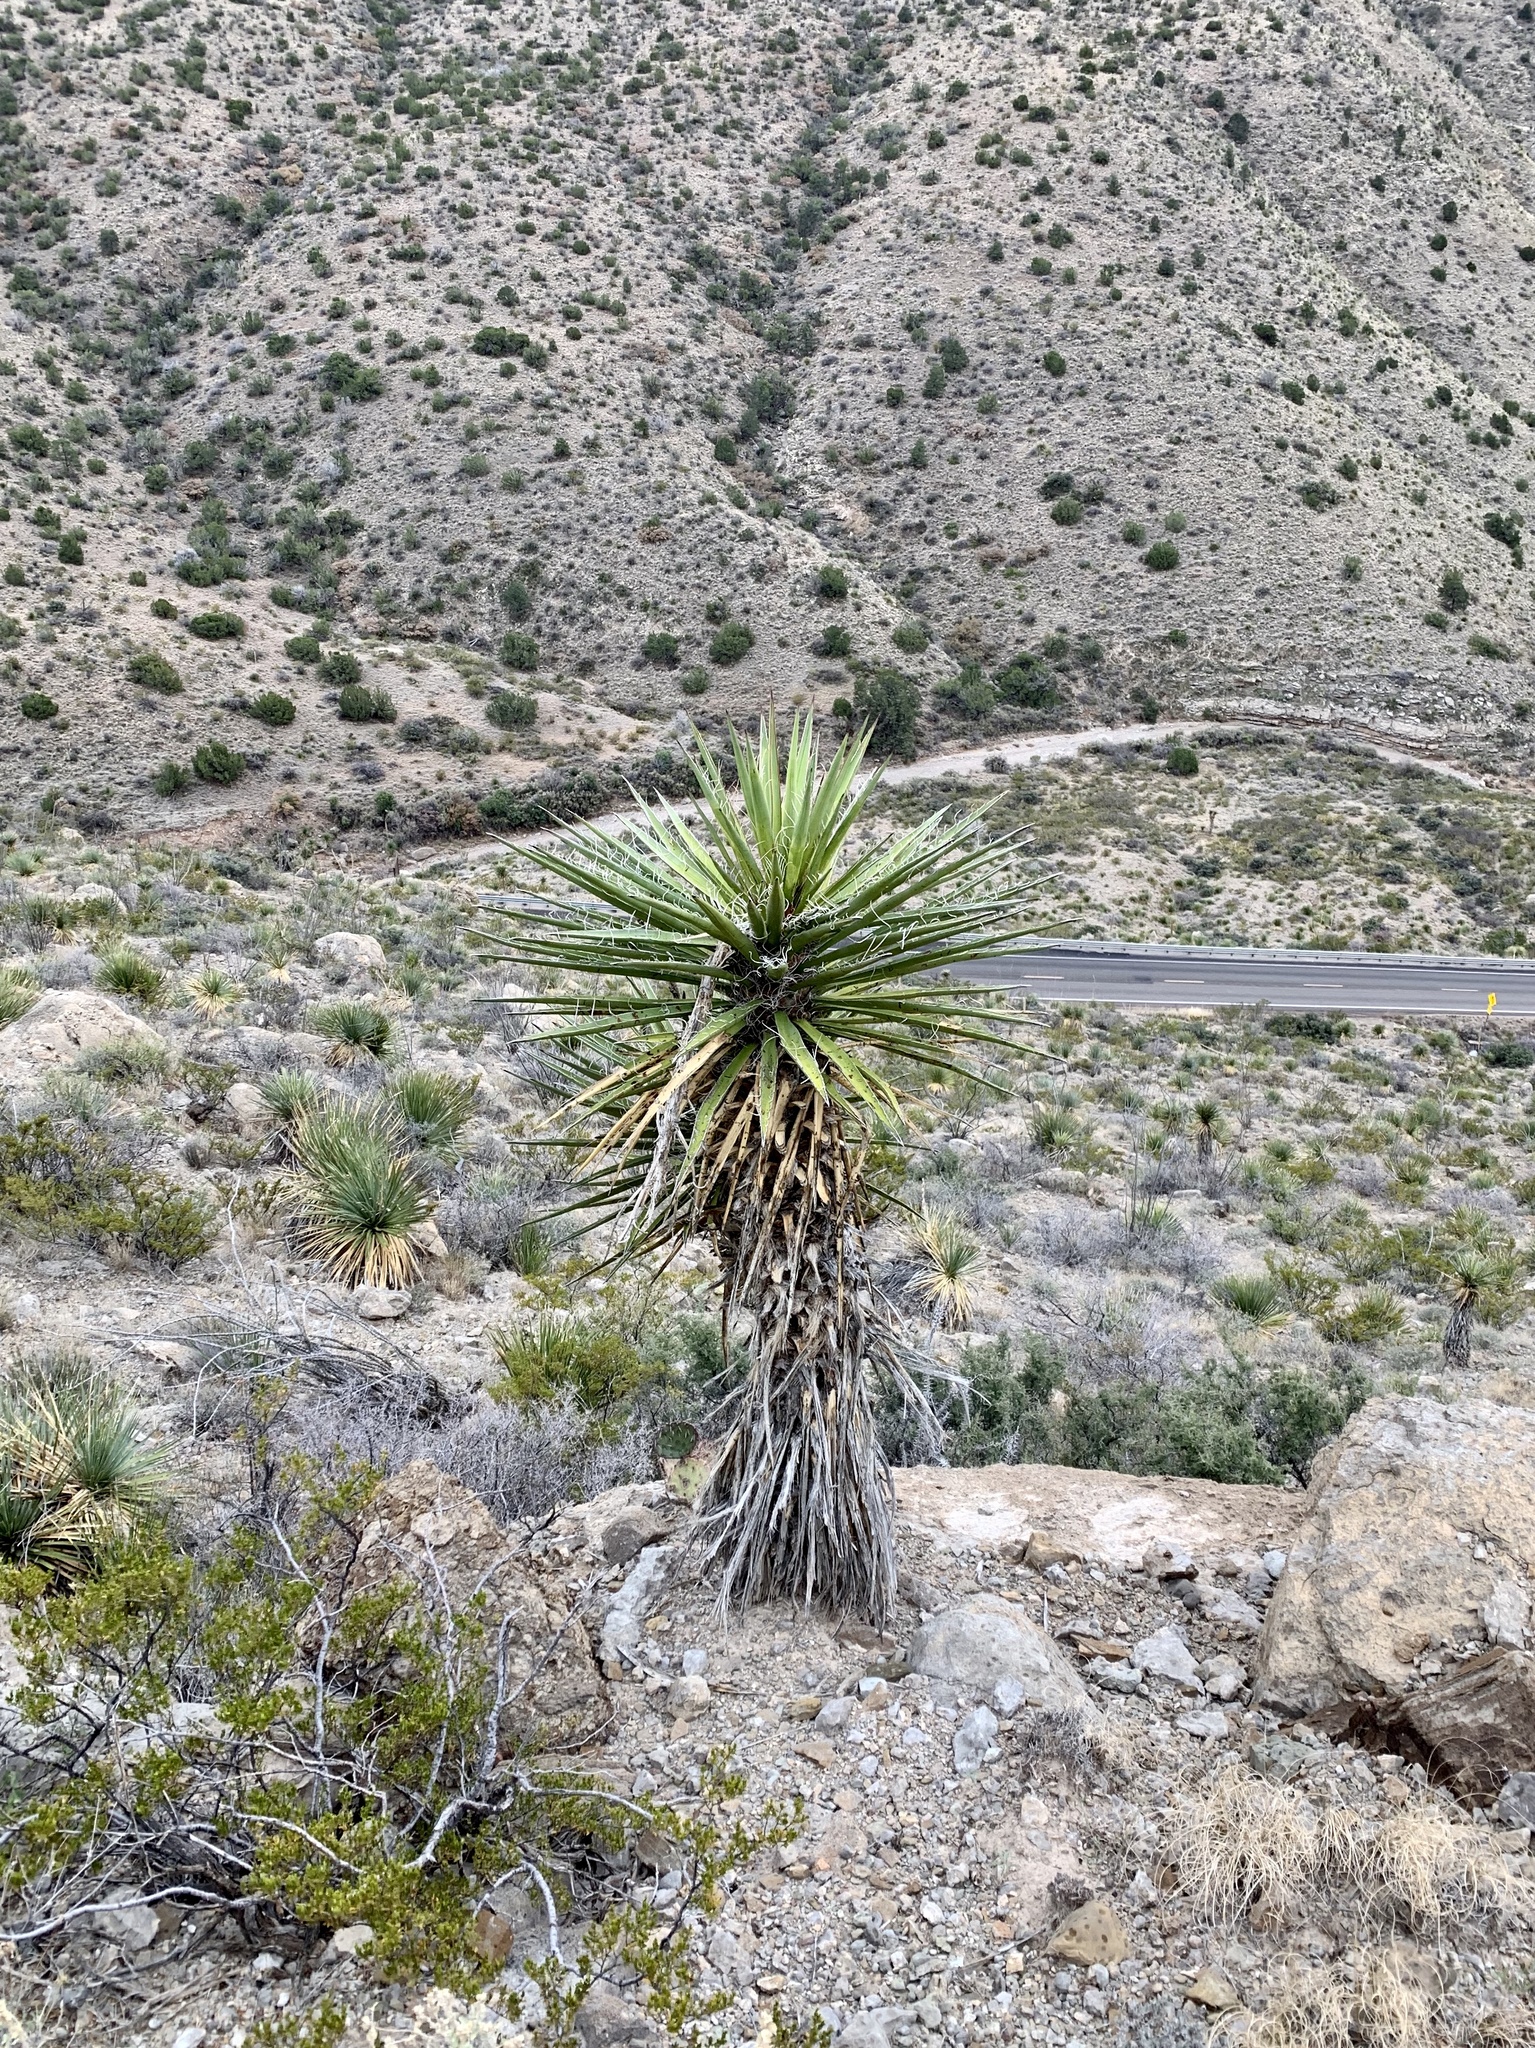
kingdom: Plantae
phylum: Tracheophyta
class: Liliopsida
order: Asparagales
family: Asparagaceae
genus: Yucca
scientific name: Yucca treculiana
